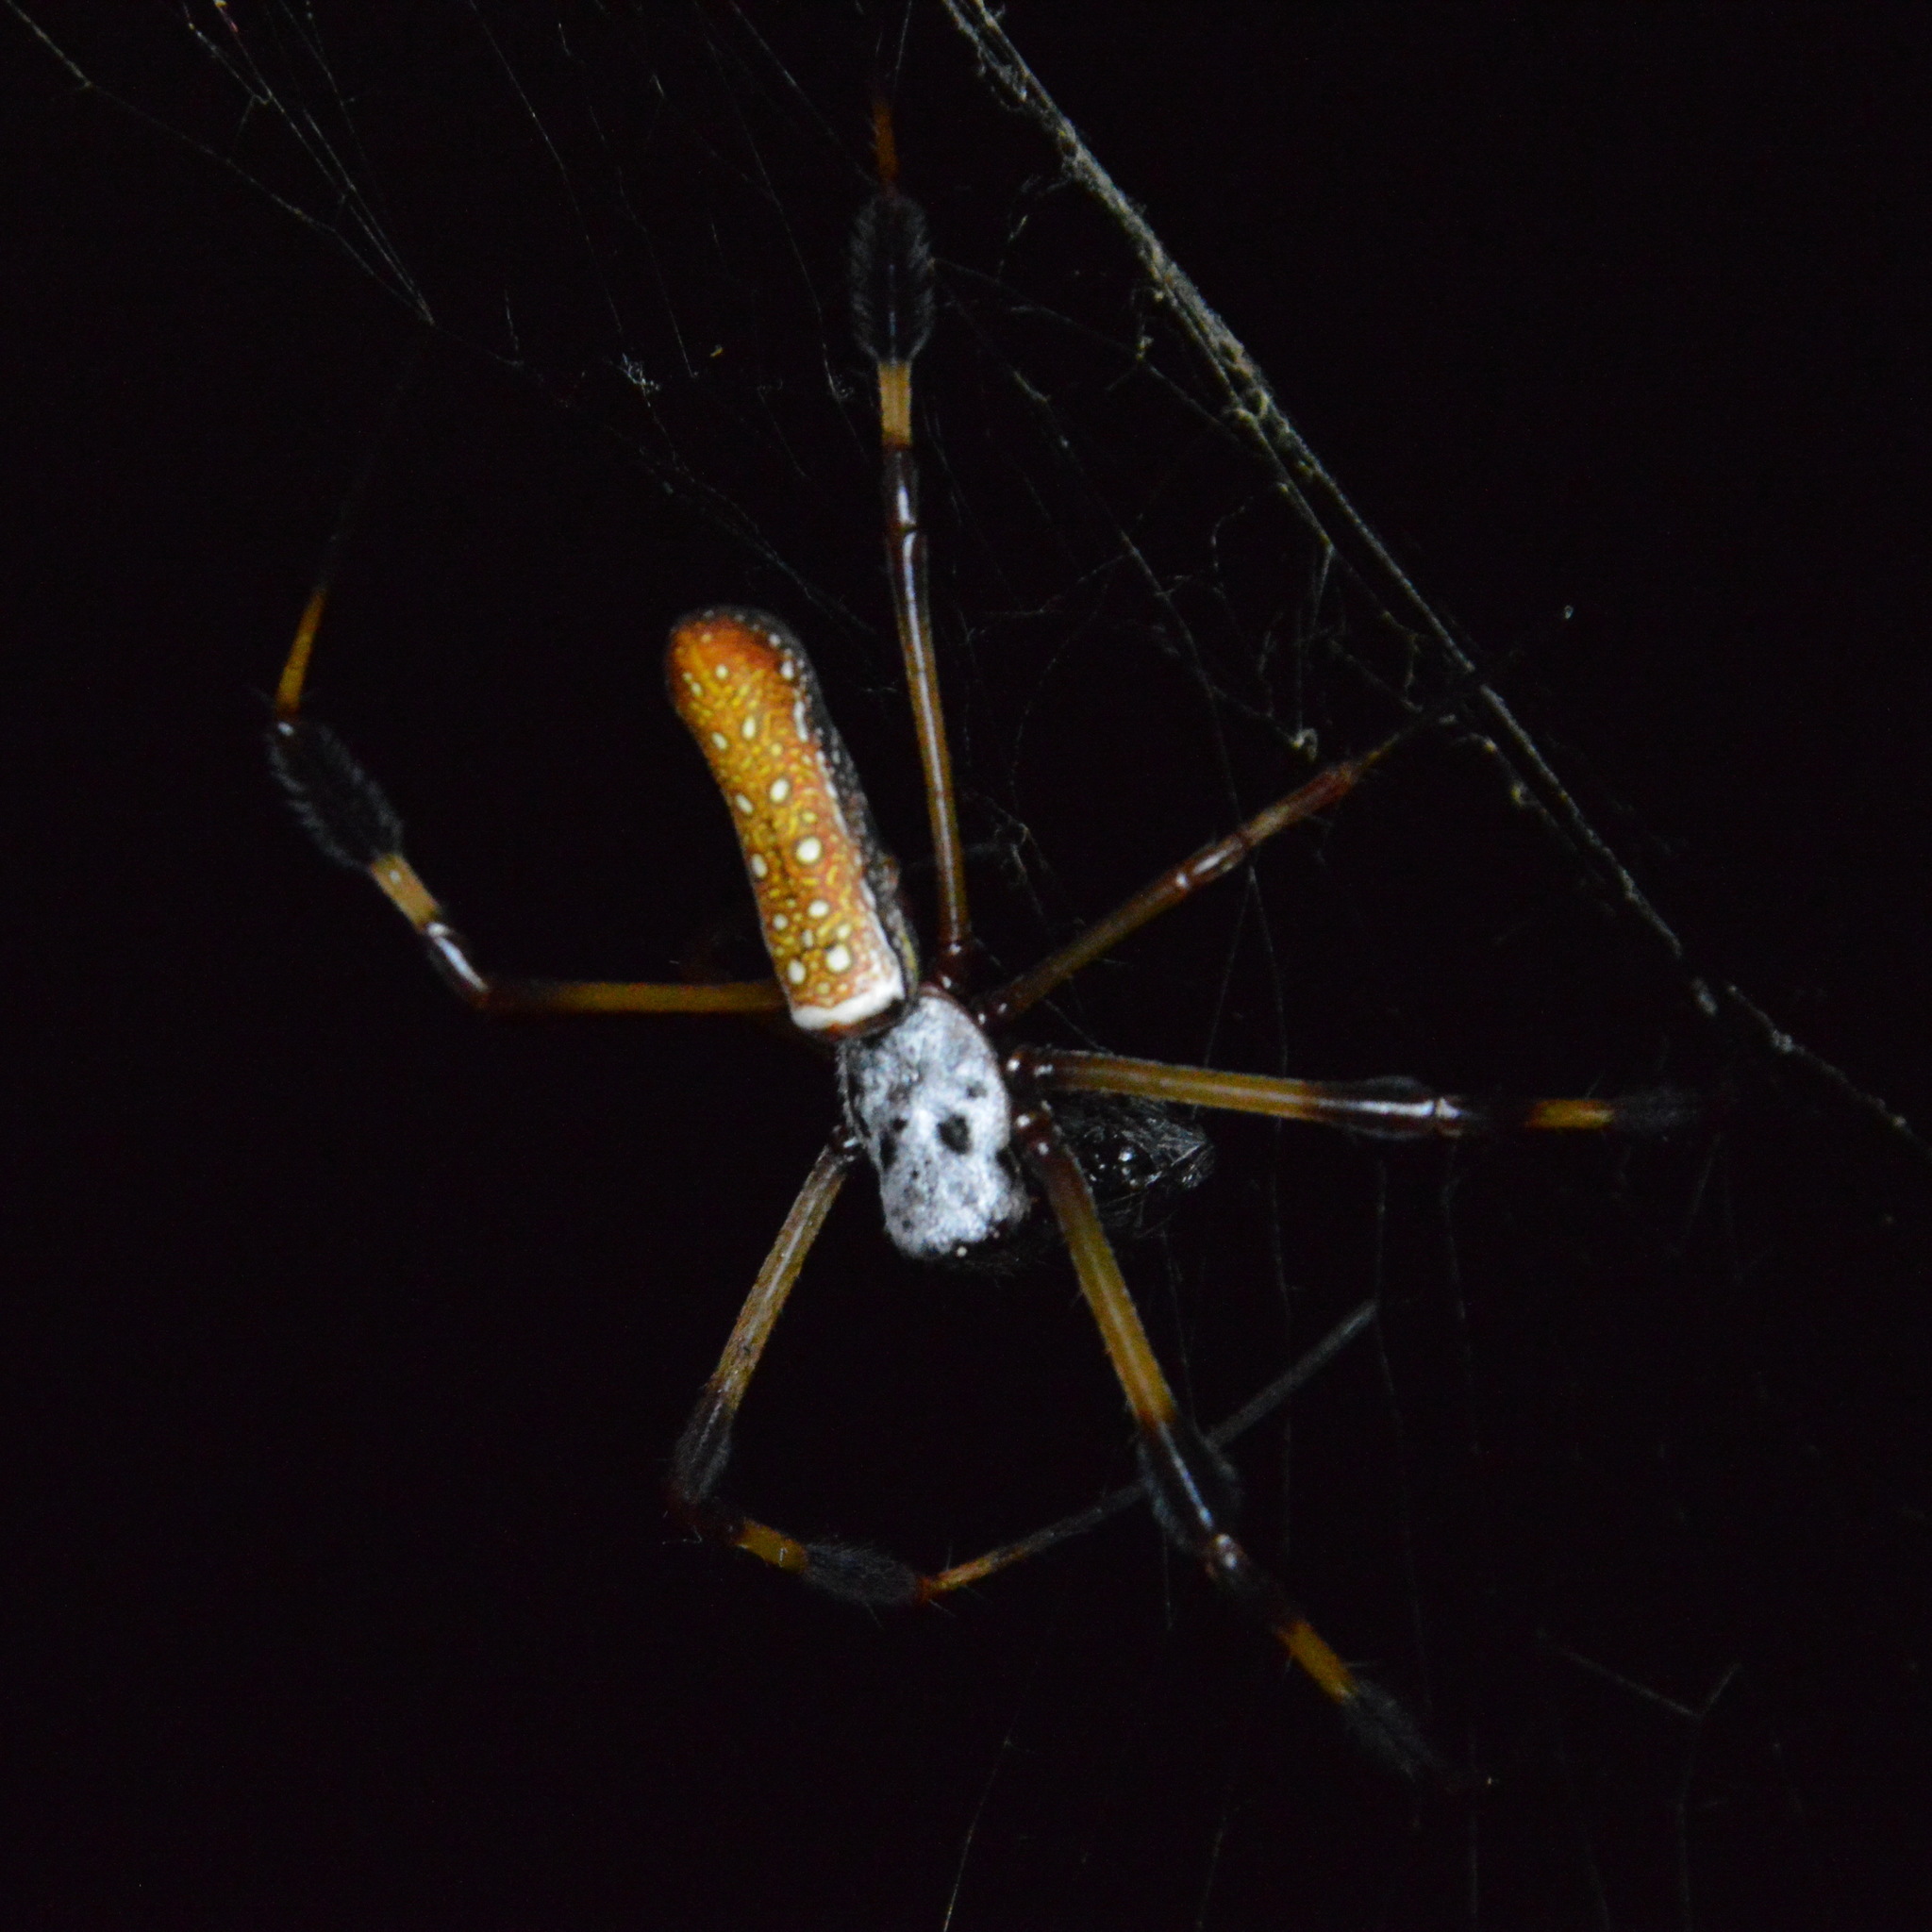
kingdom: Animalia
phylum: Arthropoda
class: Arachnida
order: Araneae
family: Araneidae
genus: Trichonephila
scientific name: Trichonephila clavipes
